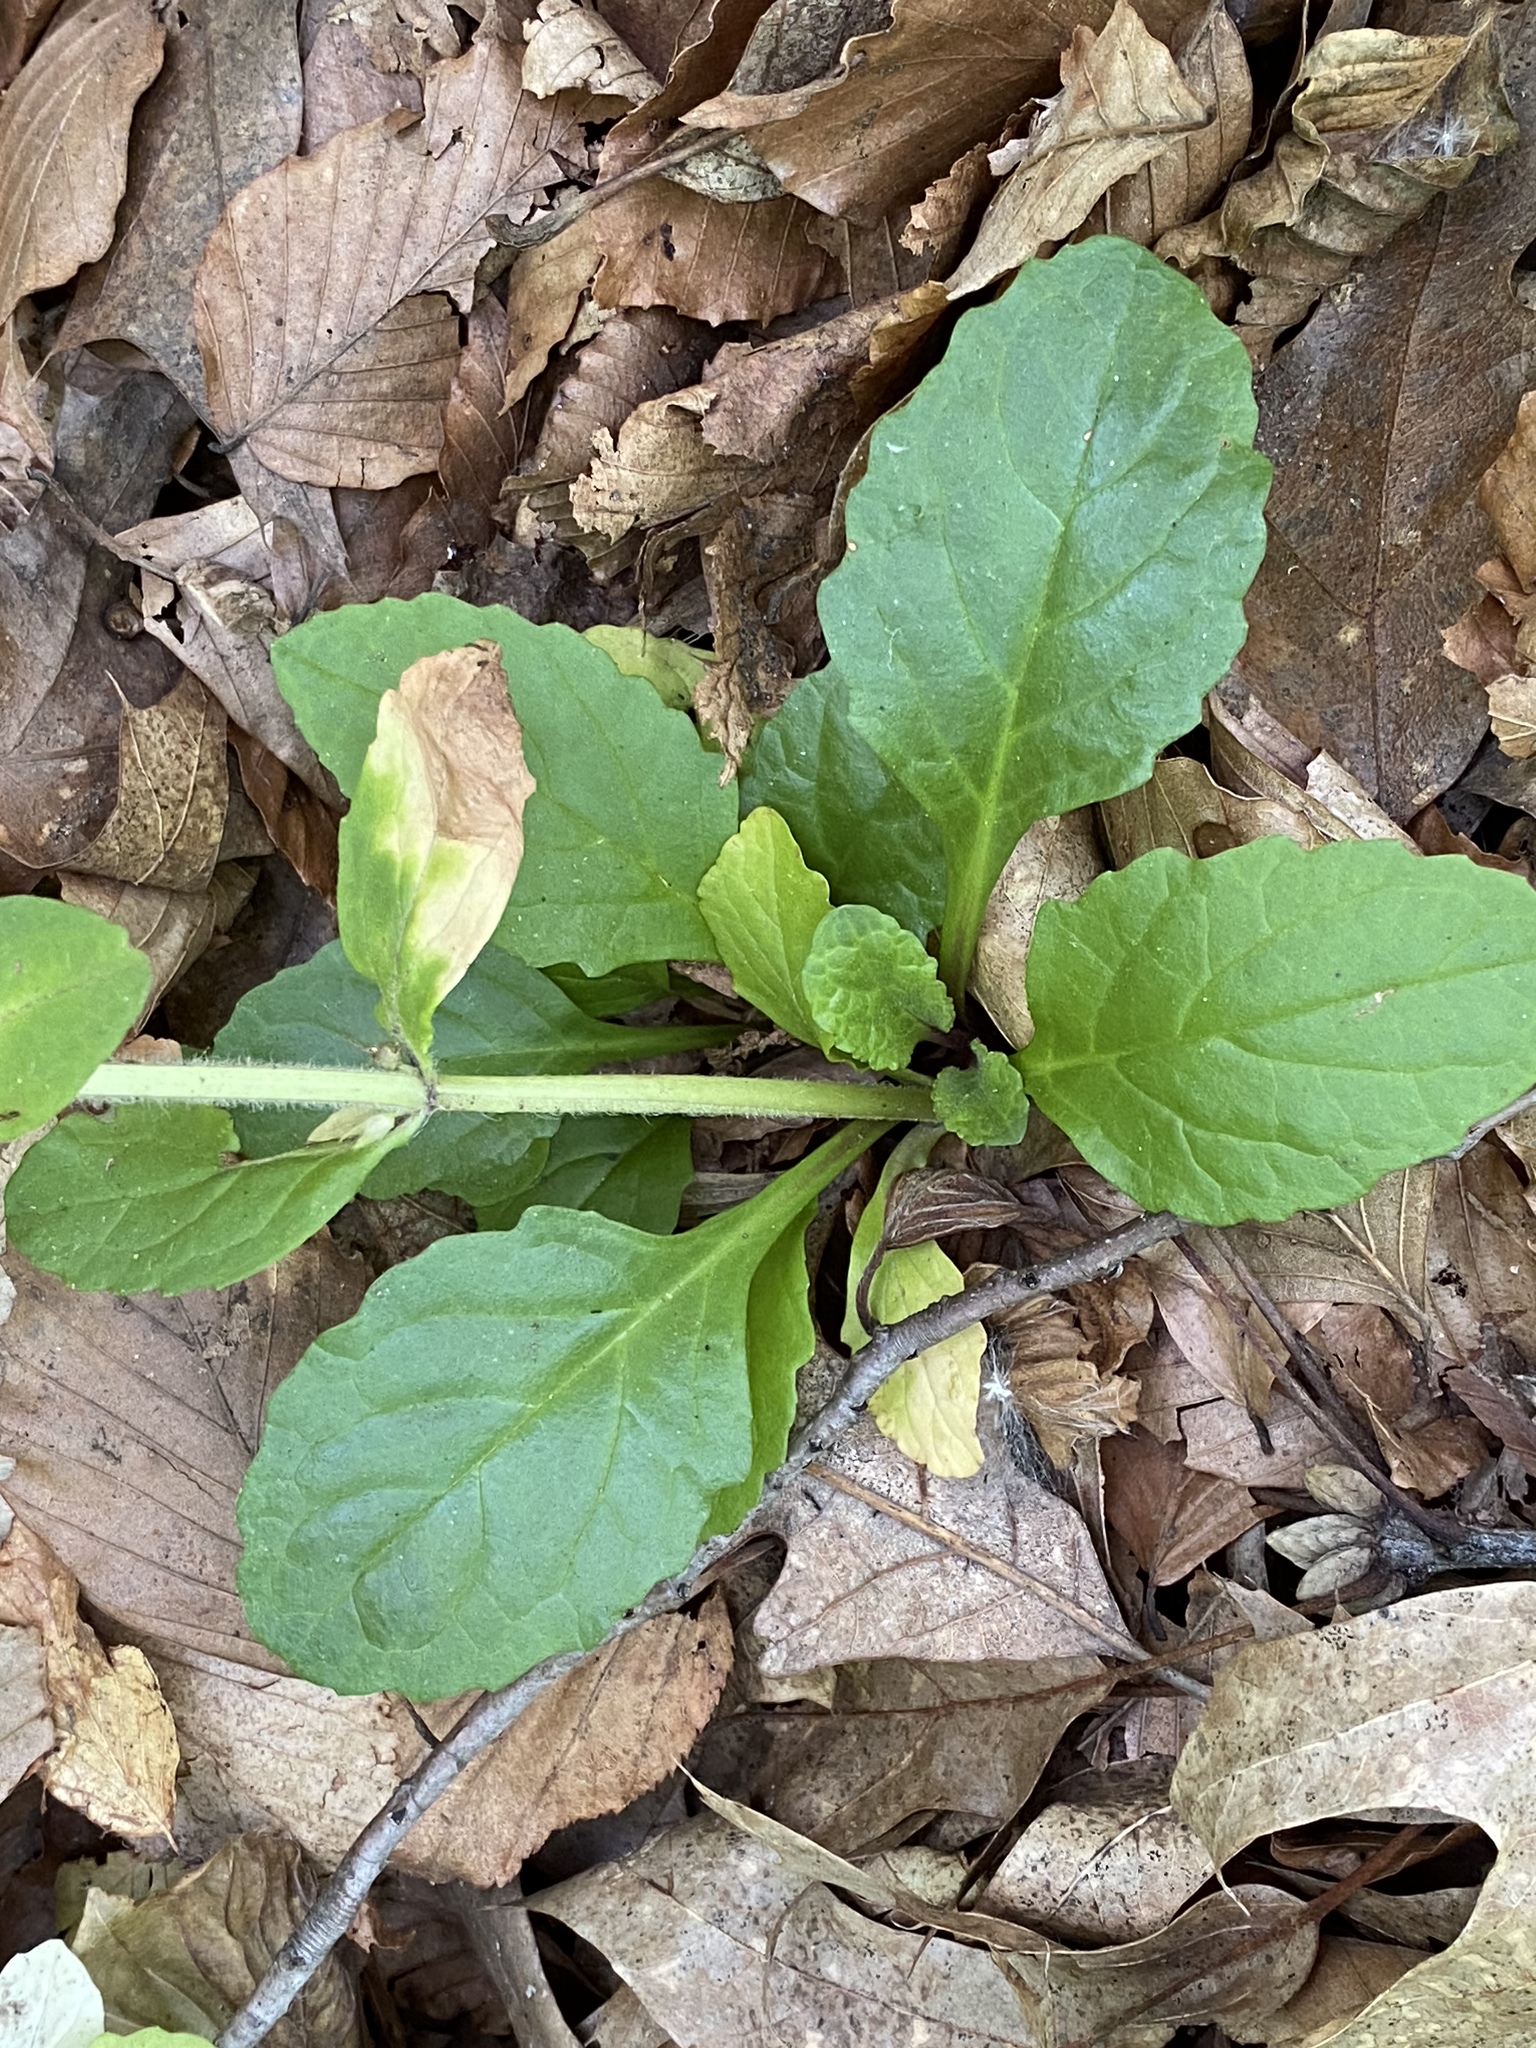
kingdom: Plantae
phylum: Tracheophyta
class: Magnoliopsida
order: Lamiales
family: Lamiaceae
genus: Ajuga
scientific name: Ajuga reptans
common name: Bugle
